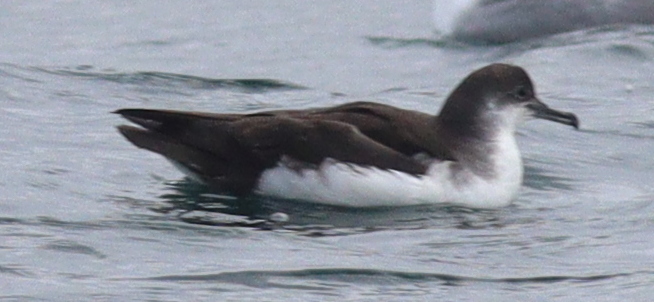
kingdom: Animalia
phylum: Chordata
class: Aves
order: Procellariiformes
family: Procellariidae
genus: Puffinus
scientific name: Puffinus puffinus
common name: Manx shearwater
